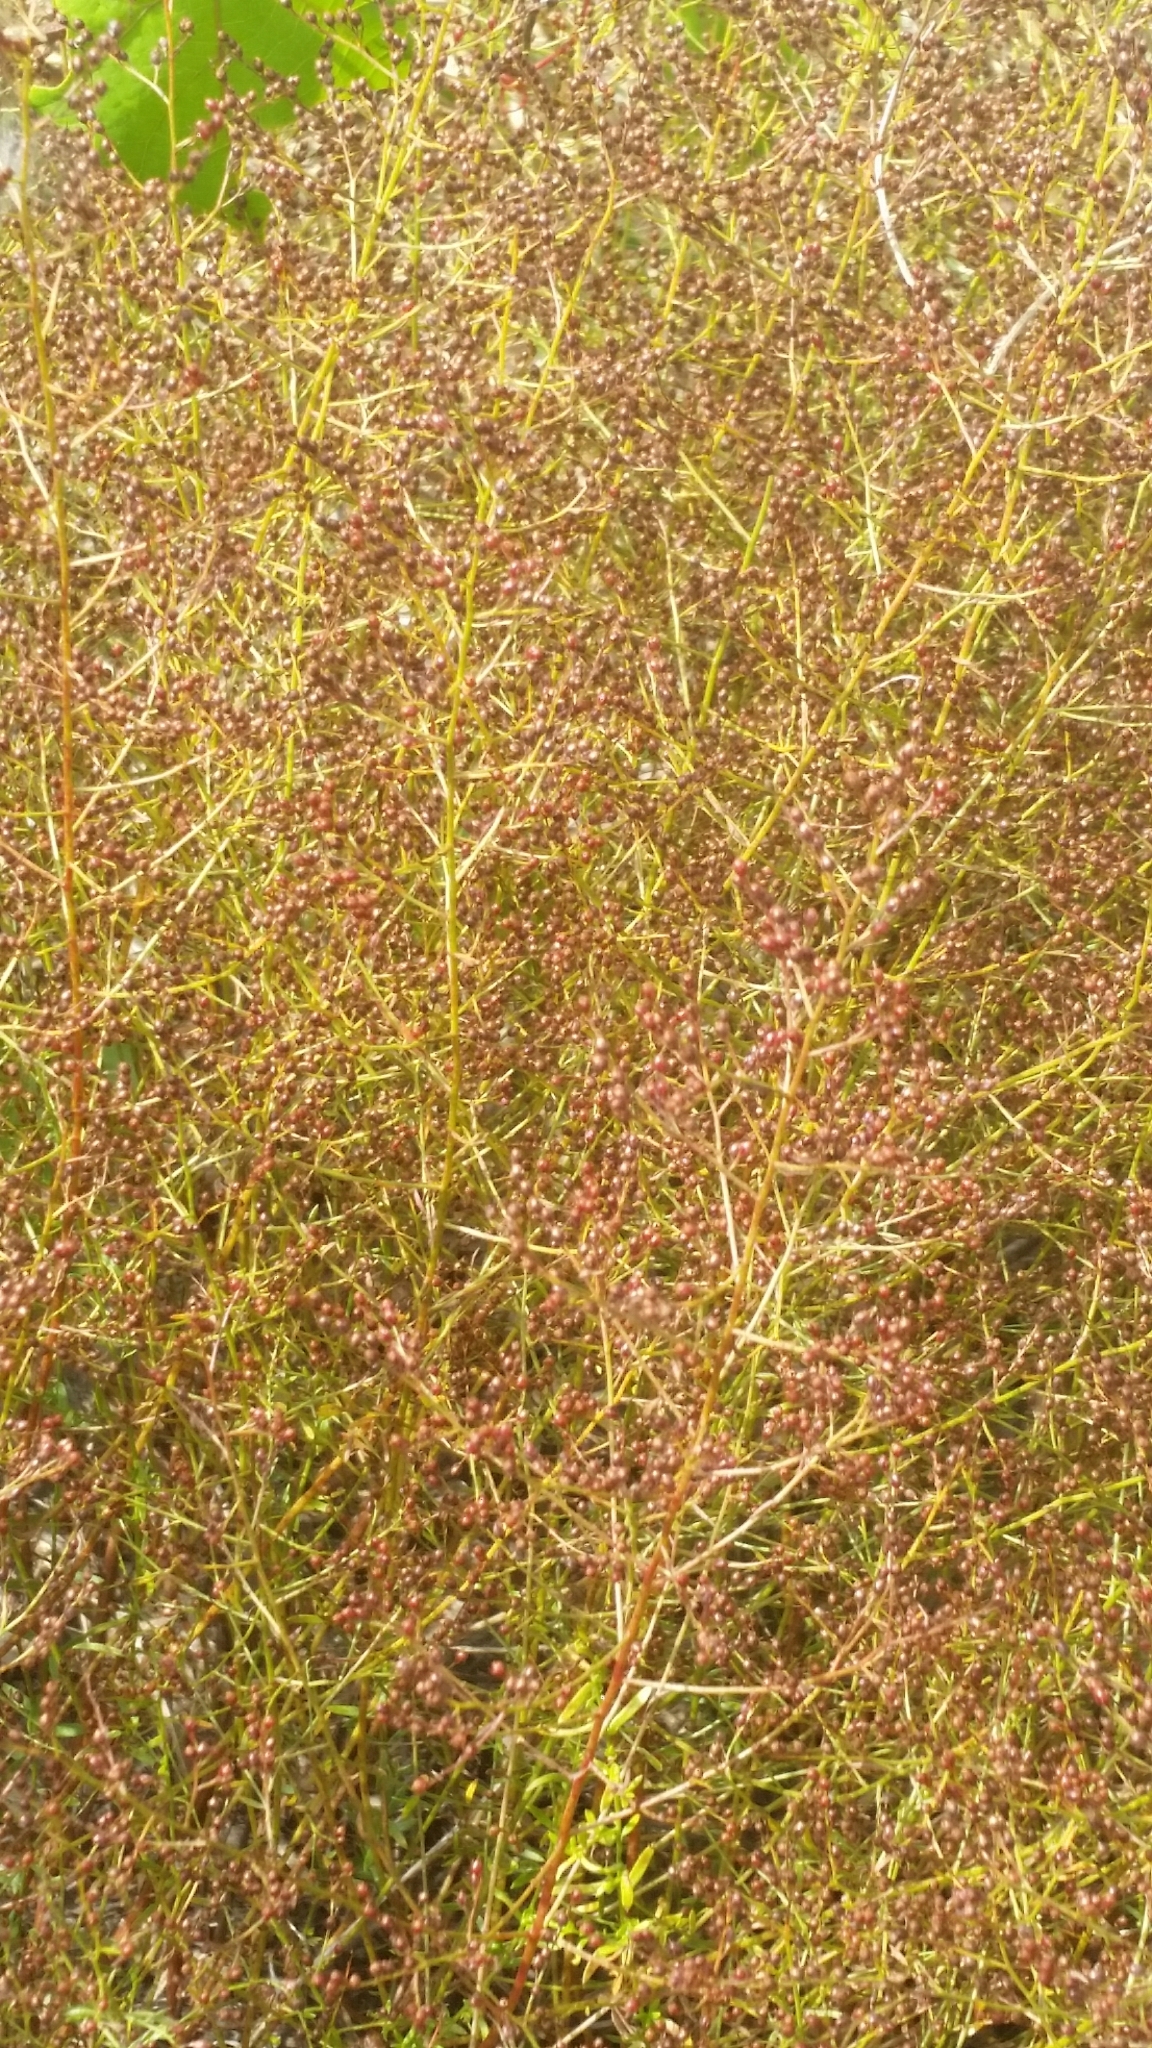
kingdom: Plantae
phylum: Tracheophyta
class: Magnoliopsida
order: Malvales
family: Cistaceae
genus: Lechea
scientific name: Lechea sessiliflora
